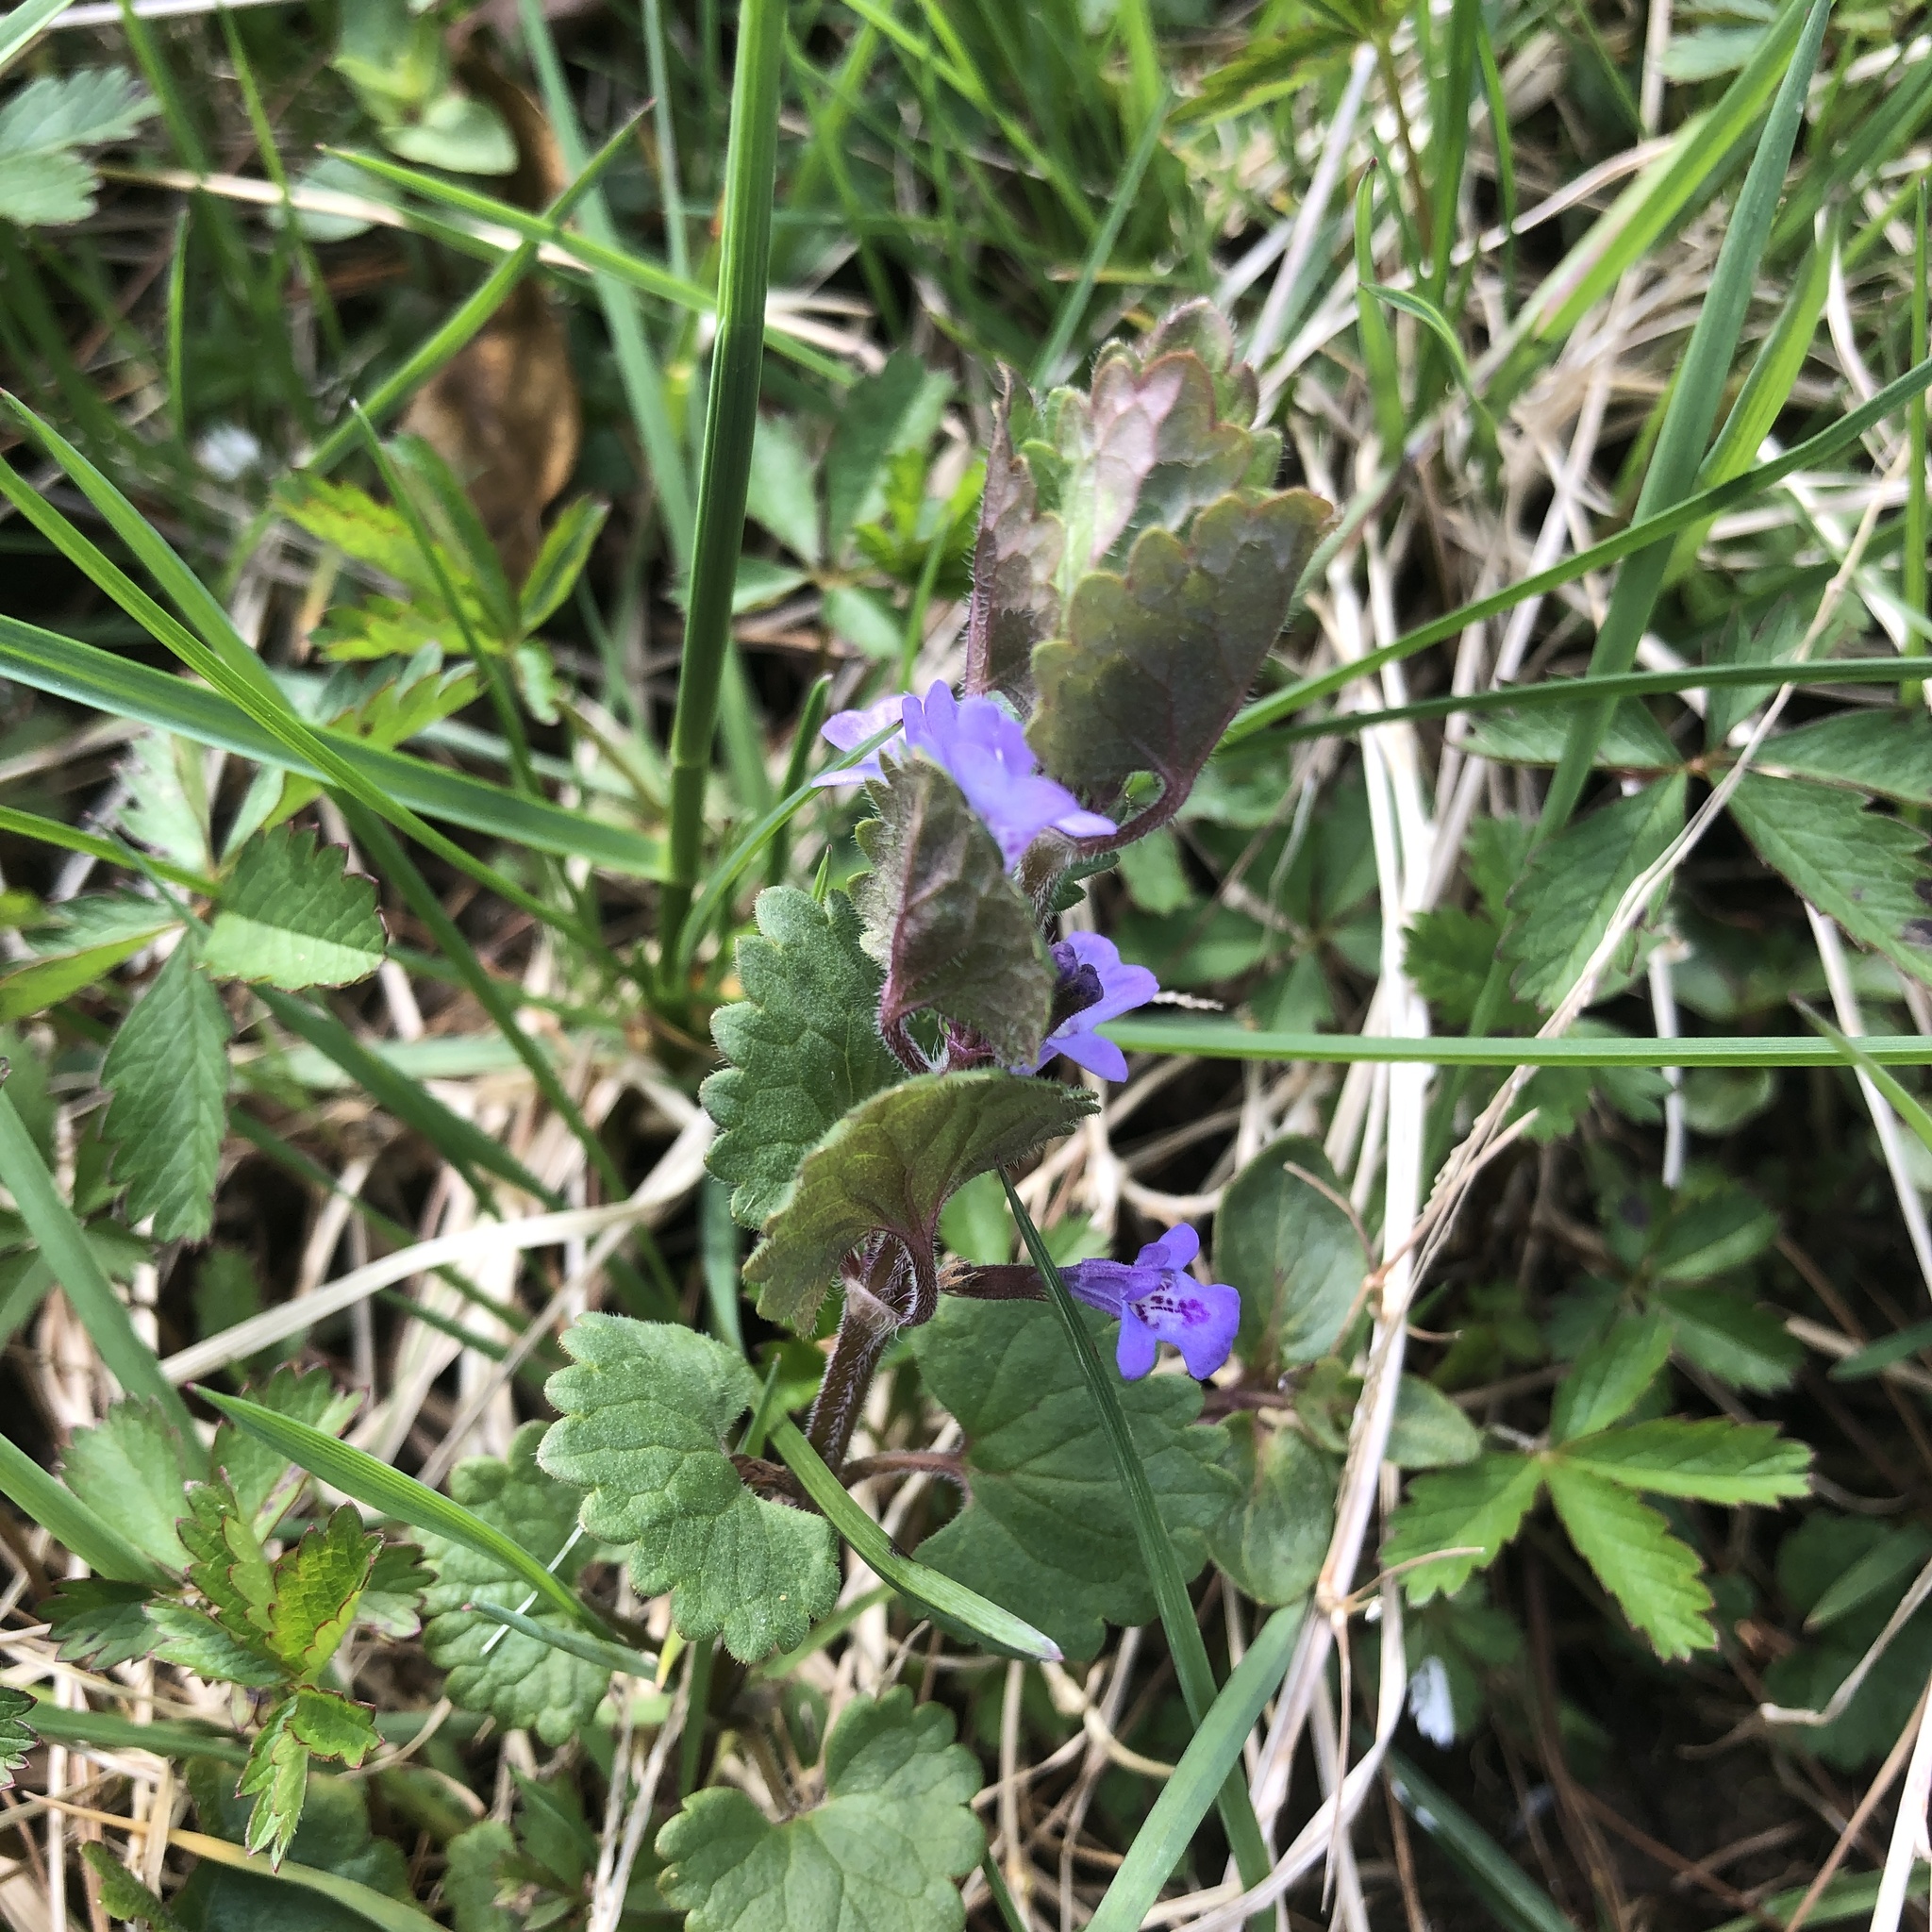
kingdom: Plantae
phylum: Tracheophyta
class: Magnoliopsida
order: Lamiales
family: Lamiaceae
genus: Glechoma
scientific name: Glechoma hederacea
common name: Ground ivy
